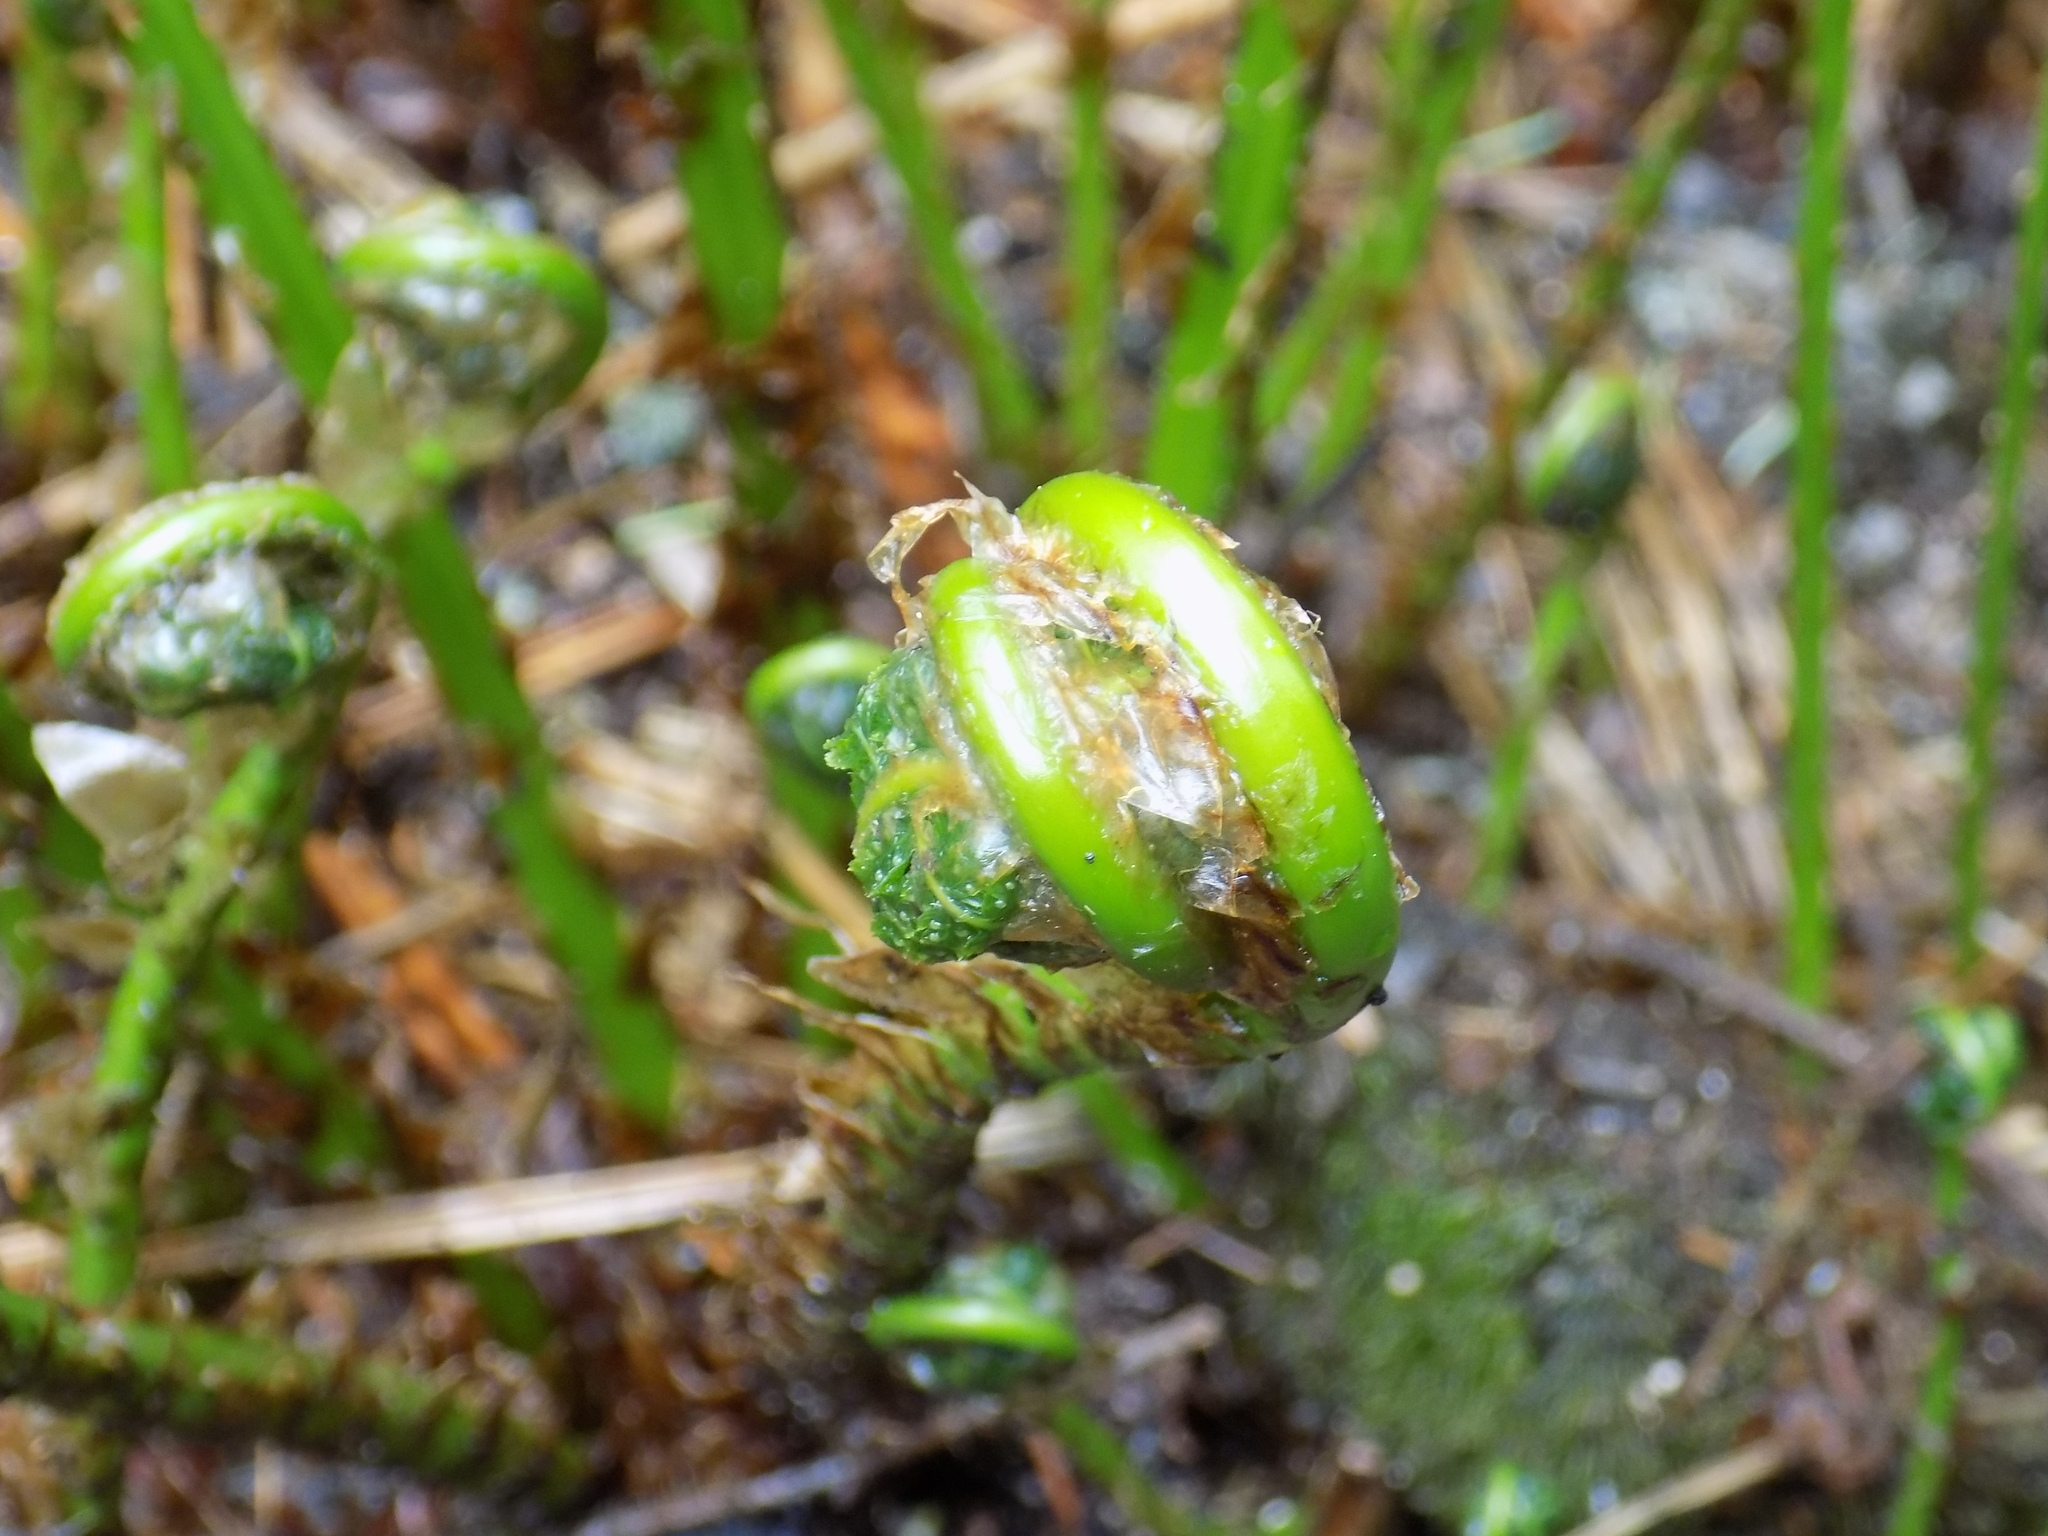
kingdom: Plantae
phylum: Tracheophyta
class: Polypodiopsida
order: Polypodiales
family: Dryopteridaceae
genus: Dryopteris
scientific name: Dryopteris expansa
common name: Northern buckler fern
